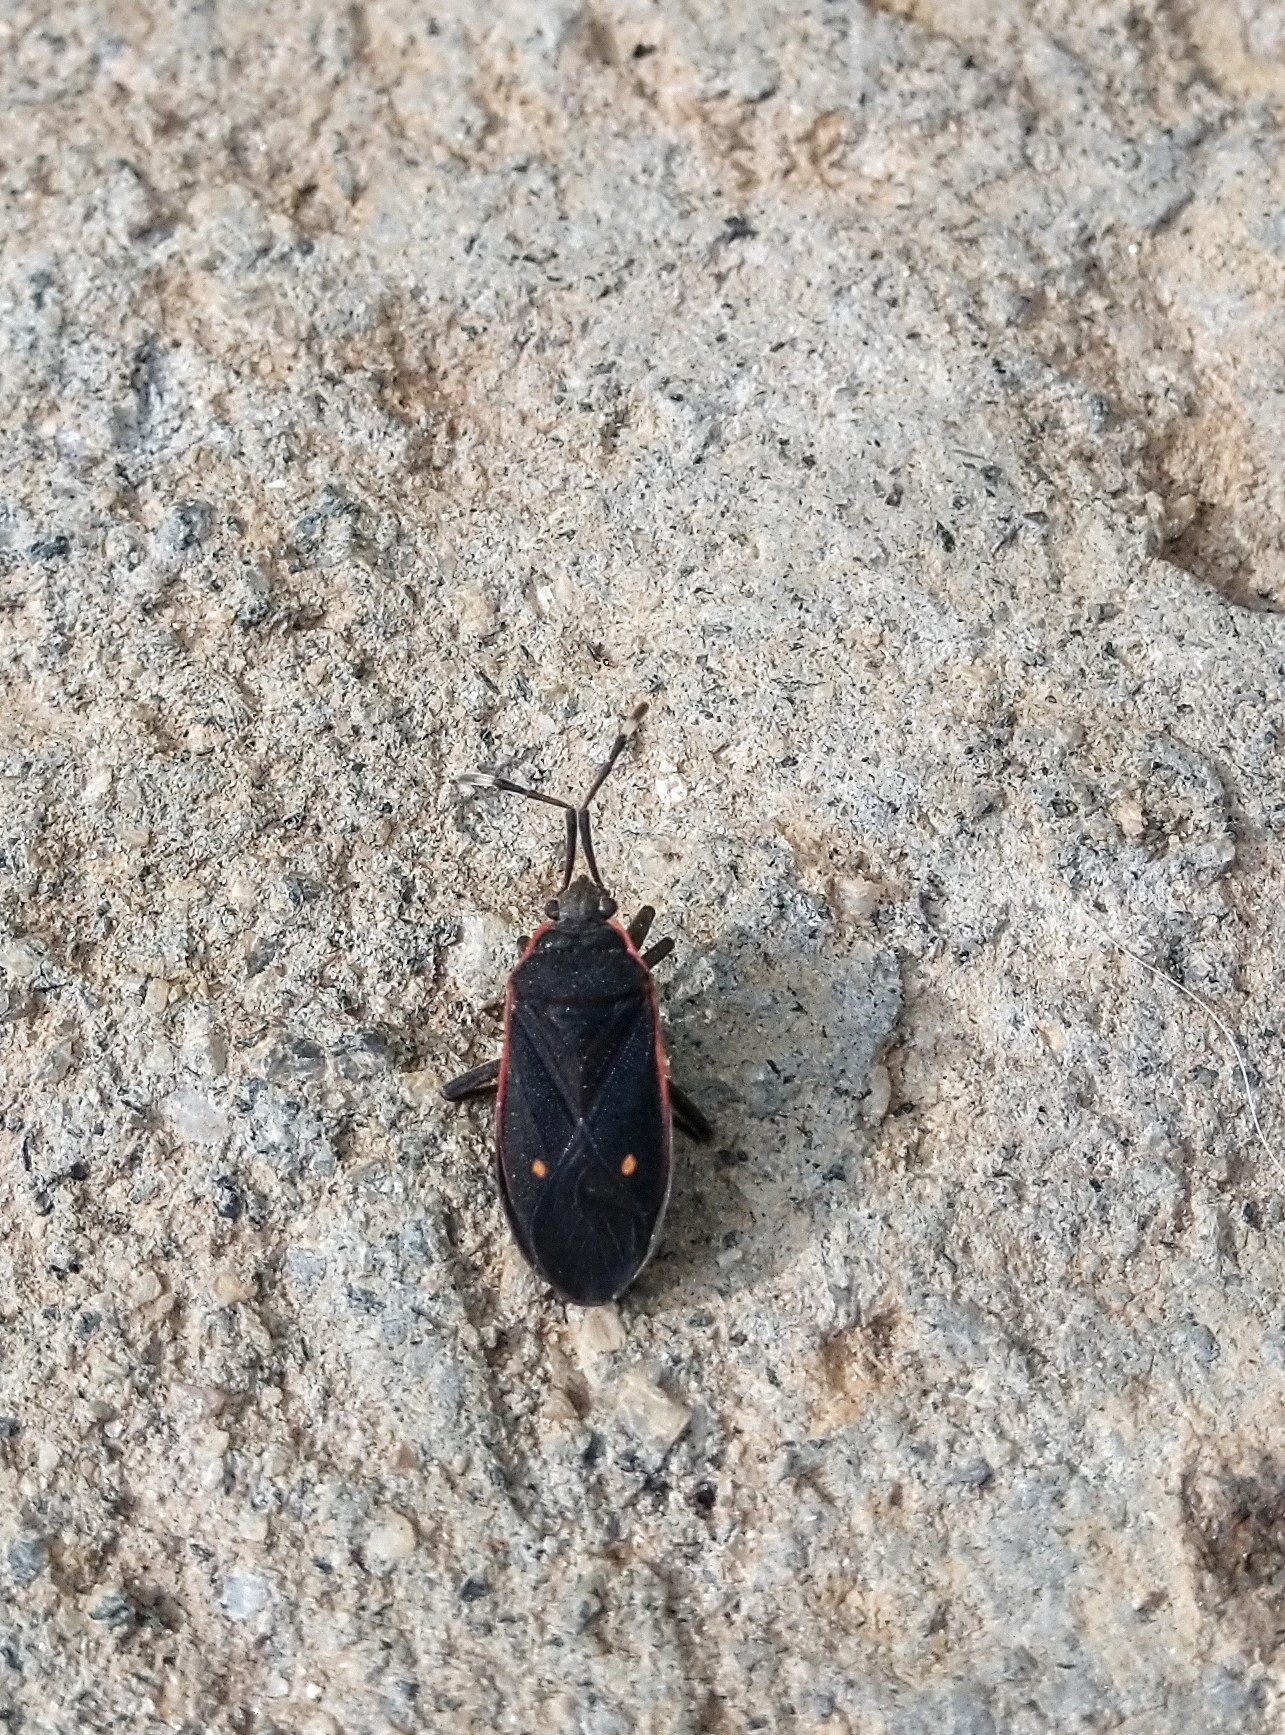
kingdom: Animalia
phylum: Arthropoda
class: Insecta
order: Hemiptera
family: Pyrrhocoridae
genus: Euscopus
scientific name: Euscopus indecorus
